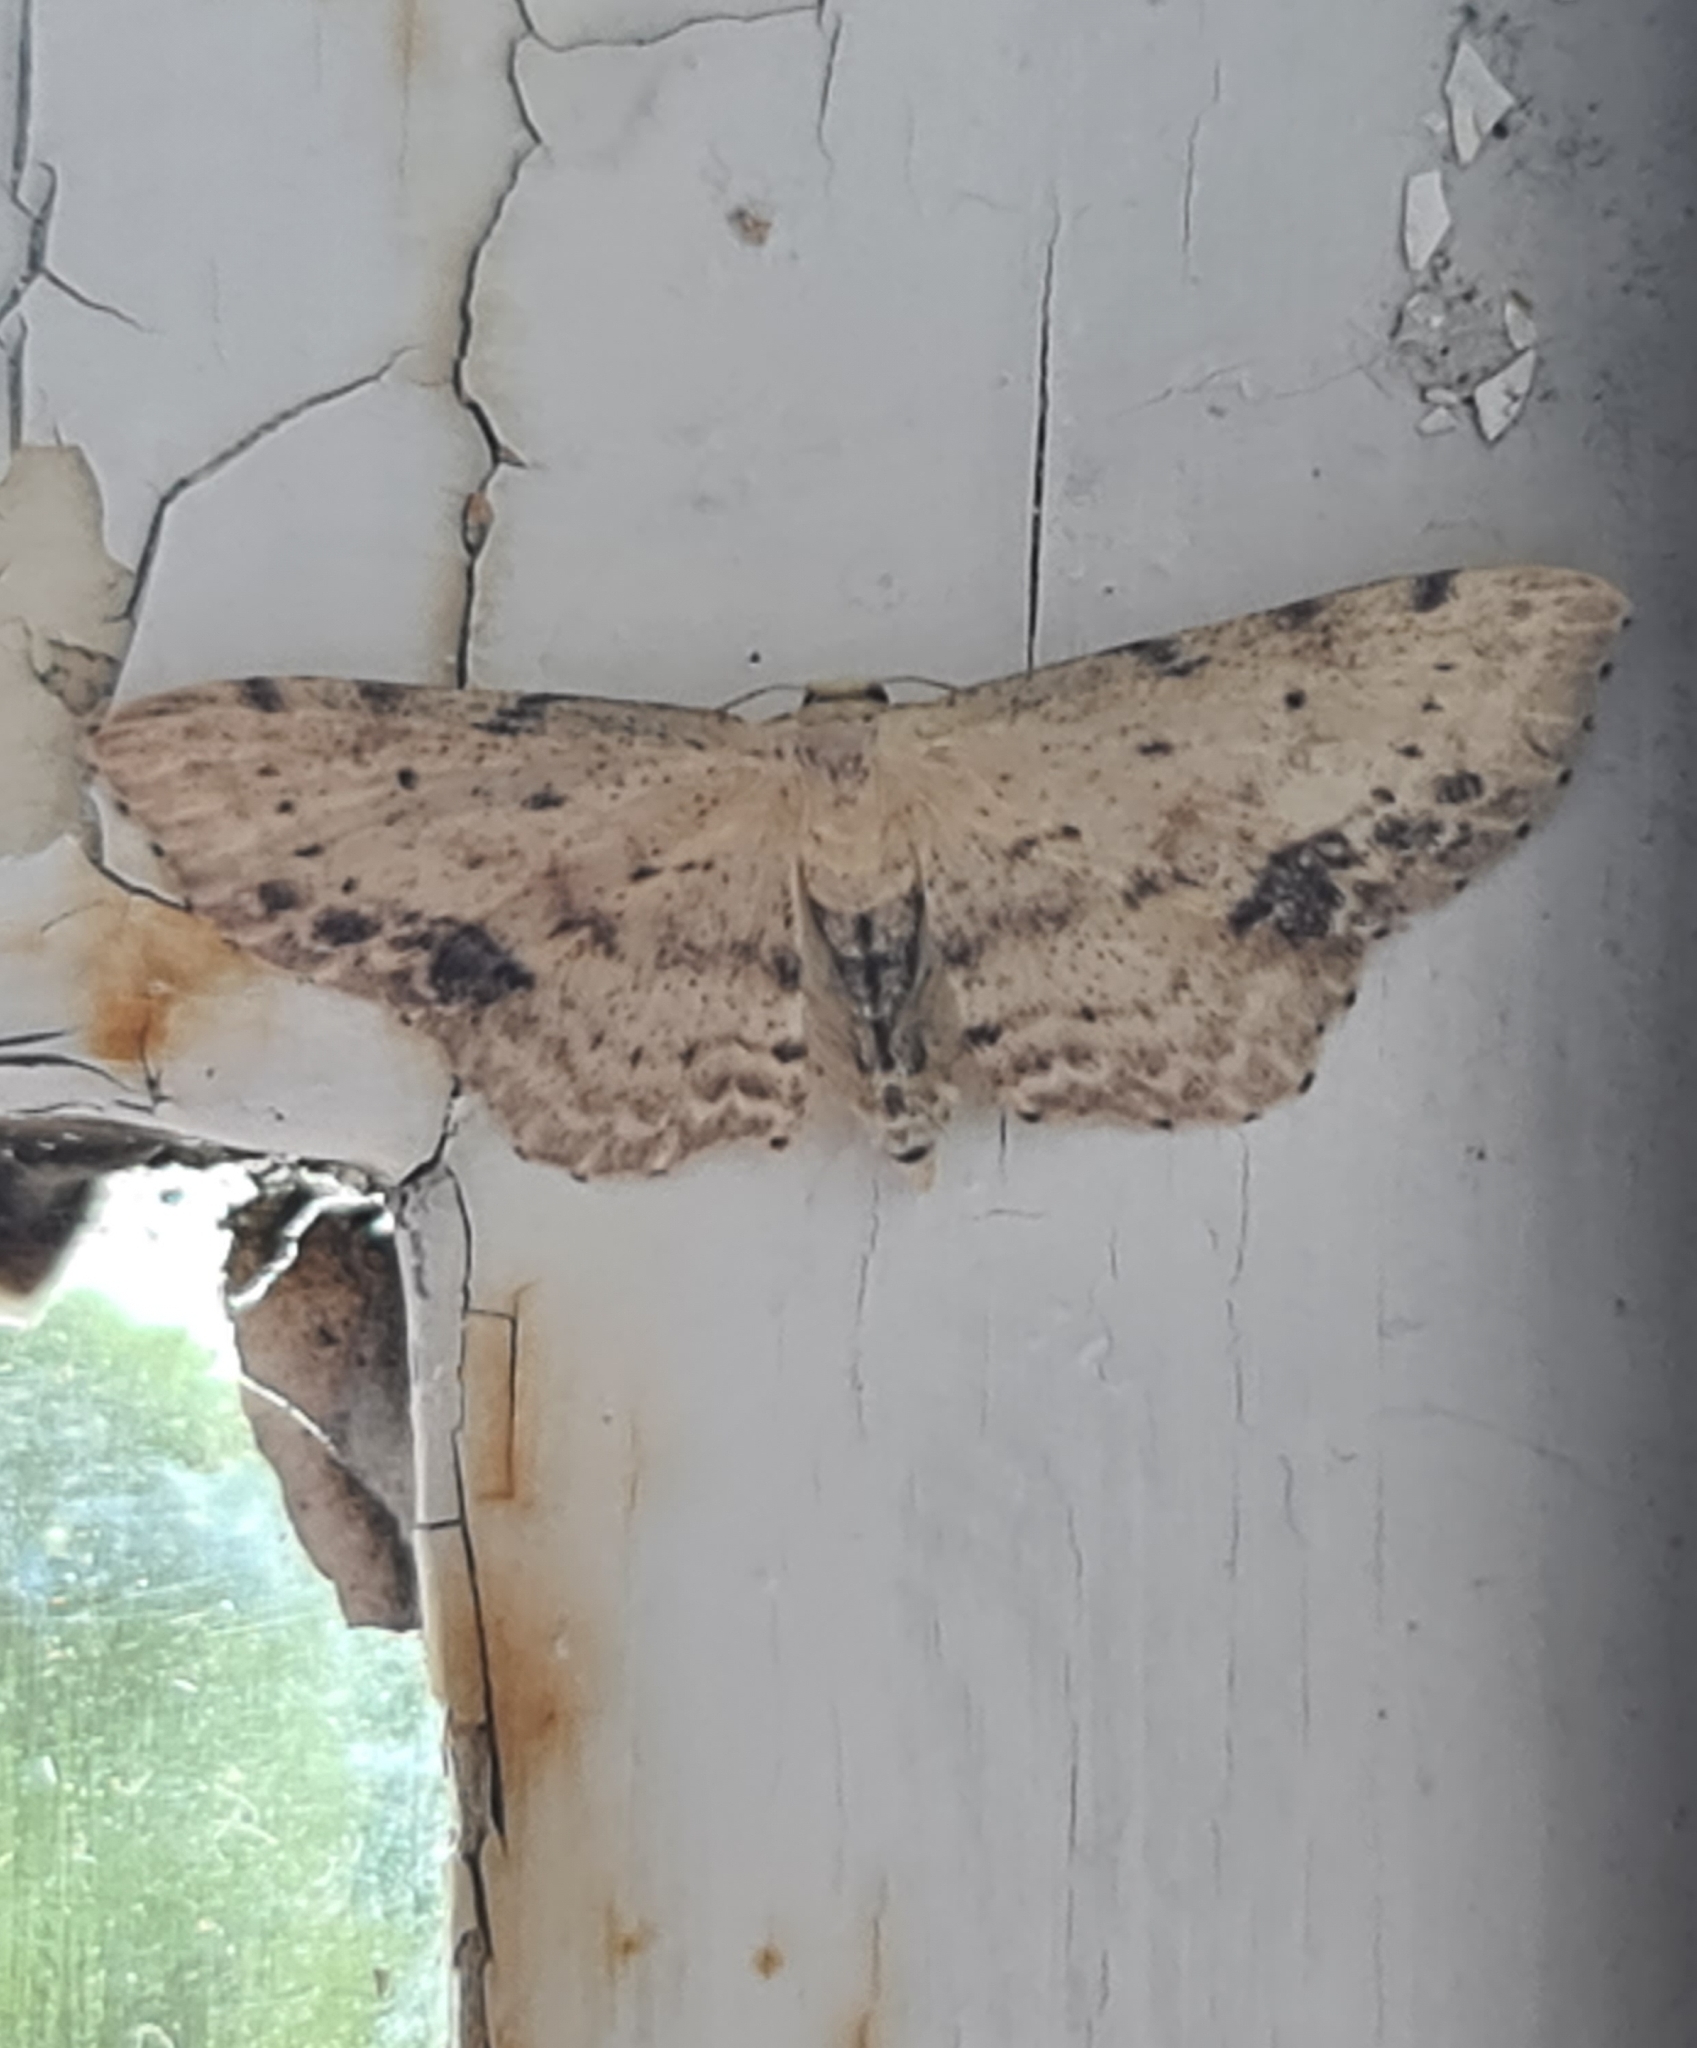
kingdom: Animalia
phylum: Arthropoda
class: Insecta
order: Lepidoptera
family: Geometridae
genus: Idaea
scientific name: Idaea dimidiata
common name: Single-dotted wave
